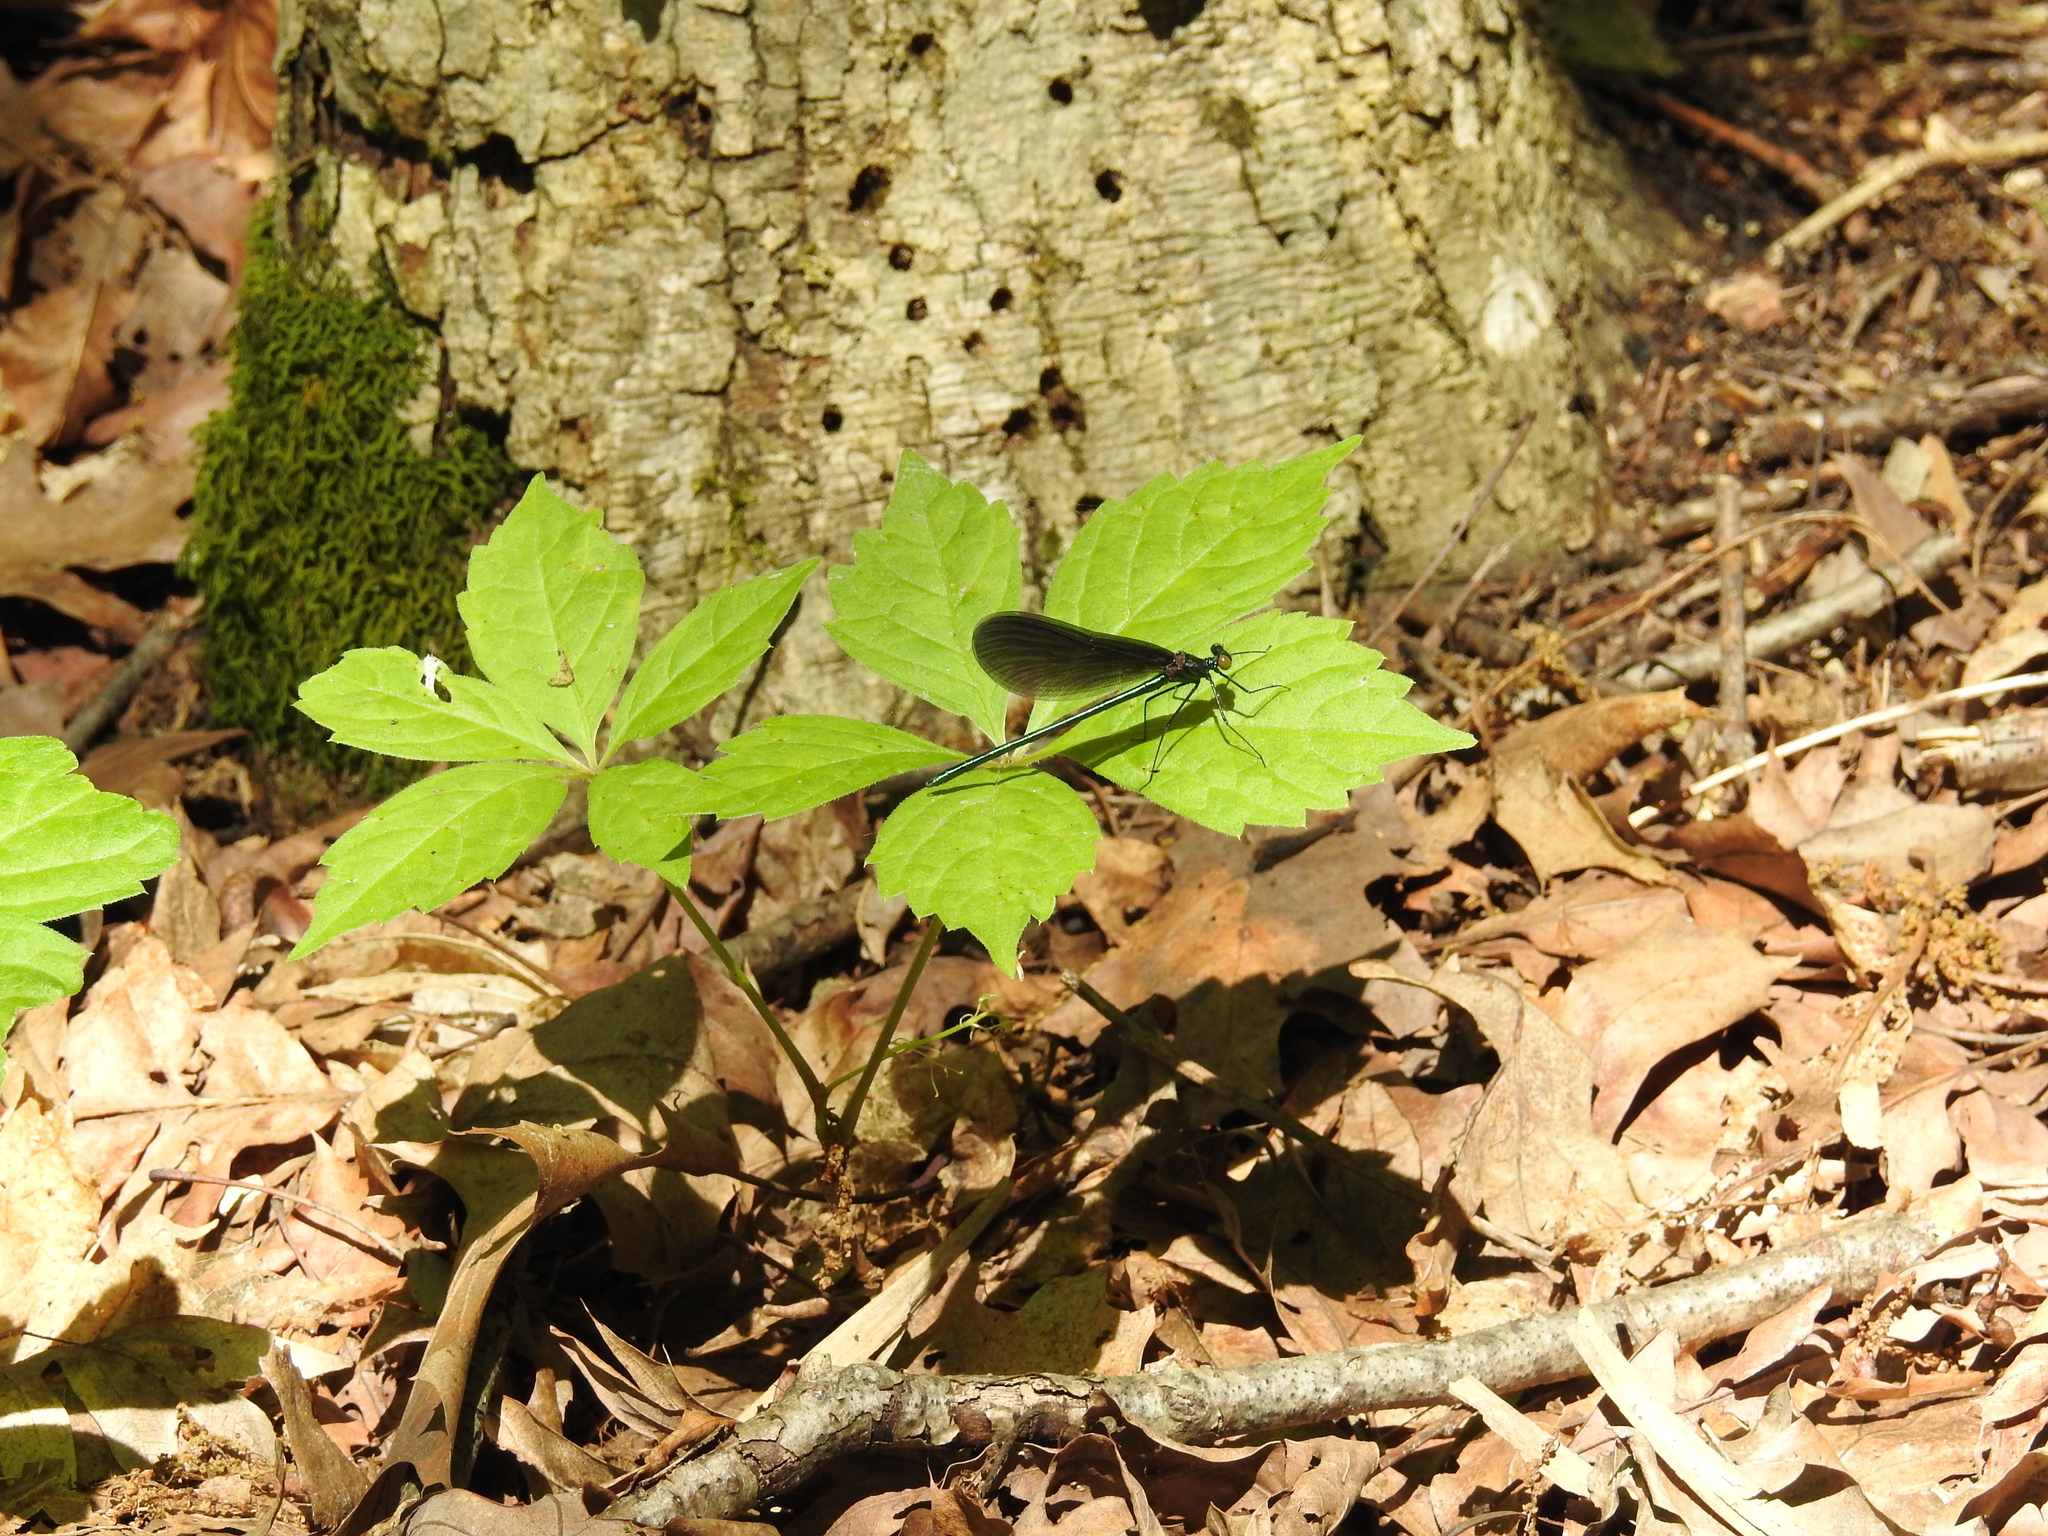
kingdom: Animalia
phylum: Arthropoda
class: Insecta
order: Odonata
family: Calopterygidae
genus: Calopteryx
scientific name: Calopteryx maculata
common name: Ebony jewelwing
